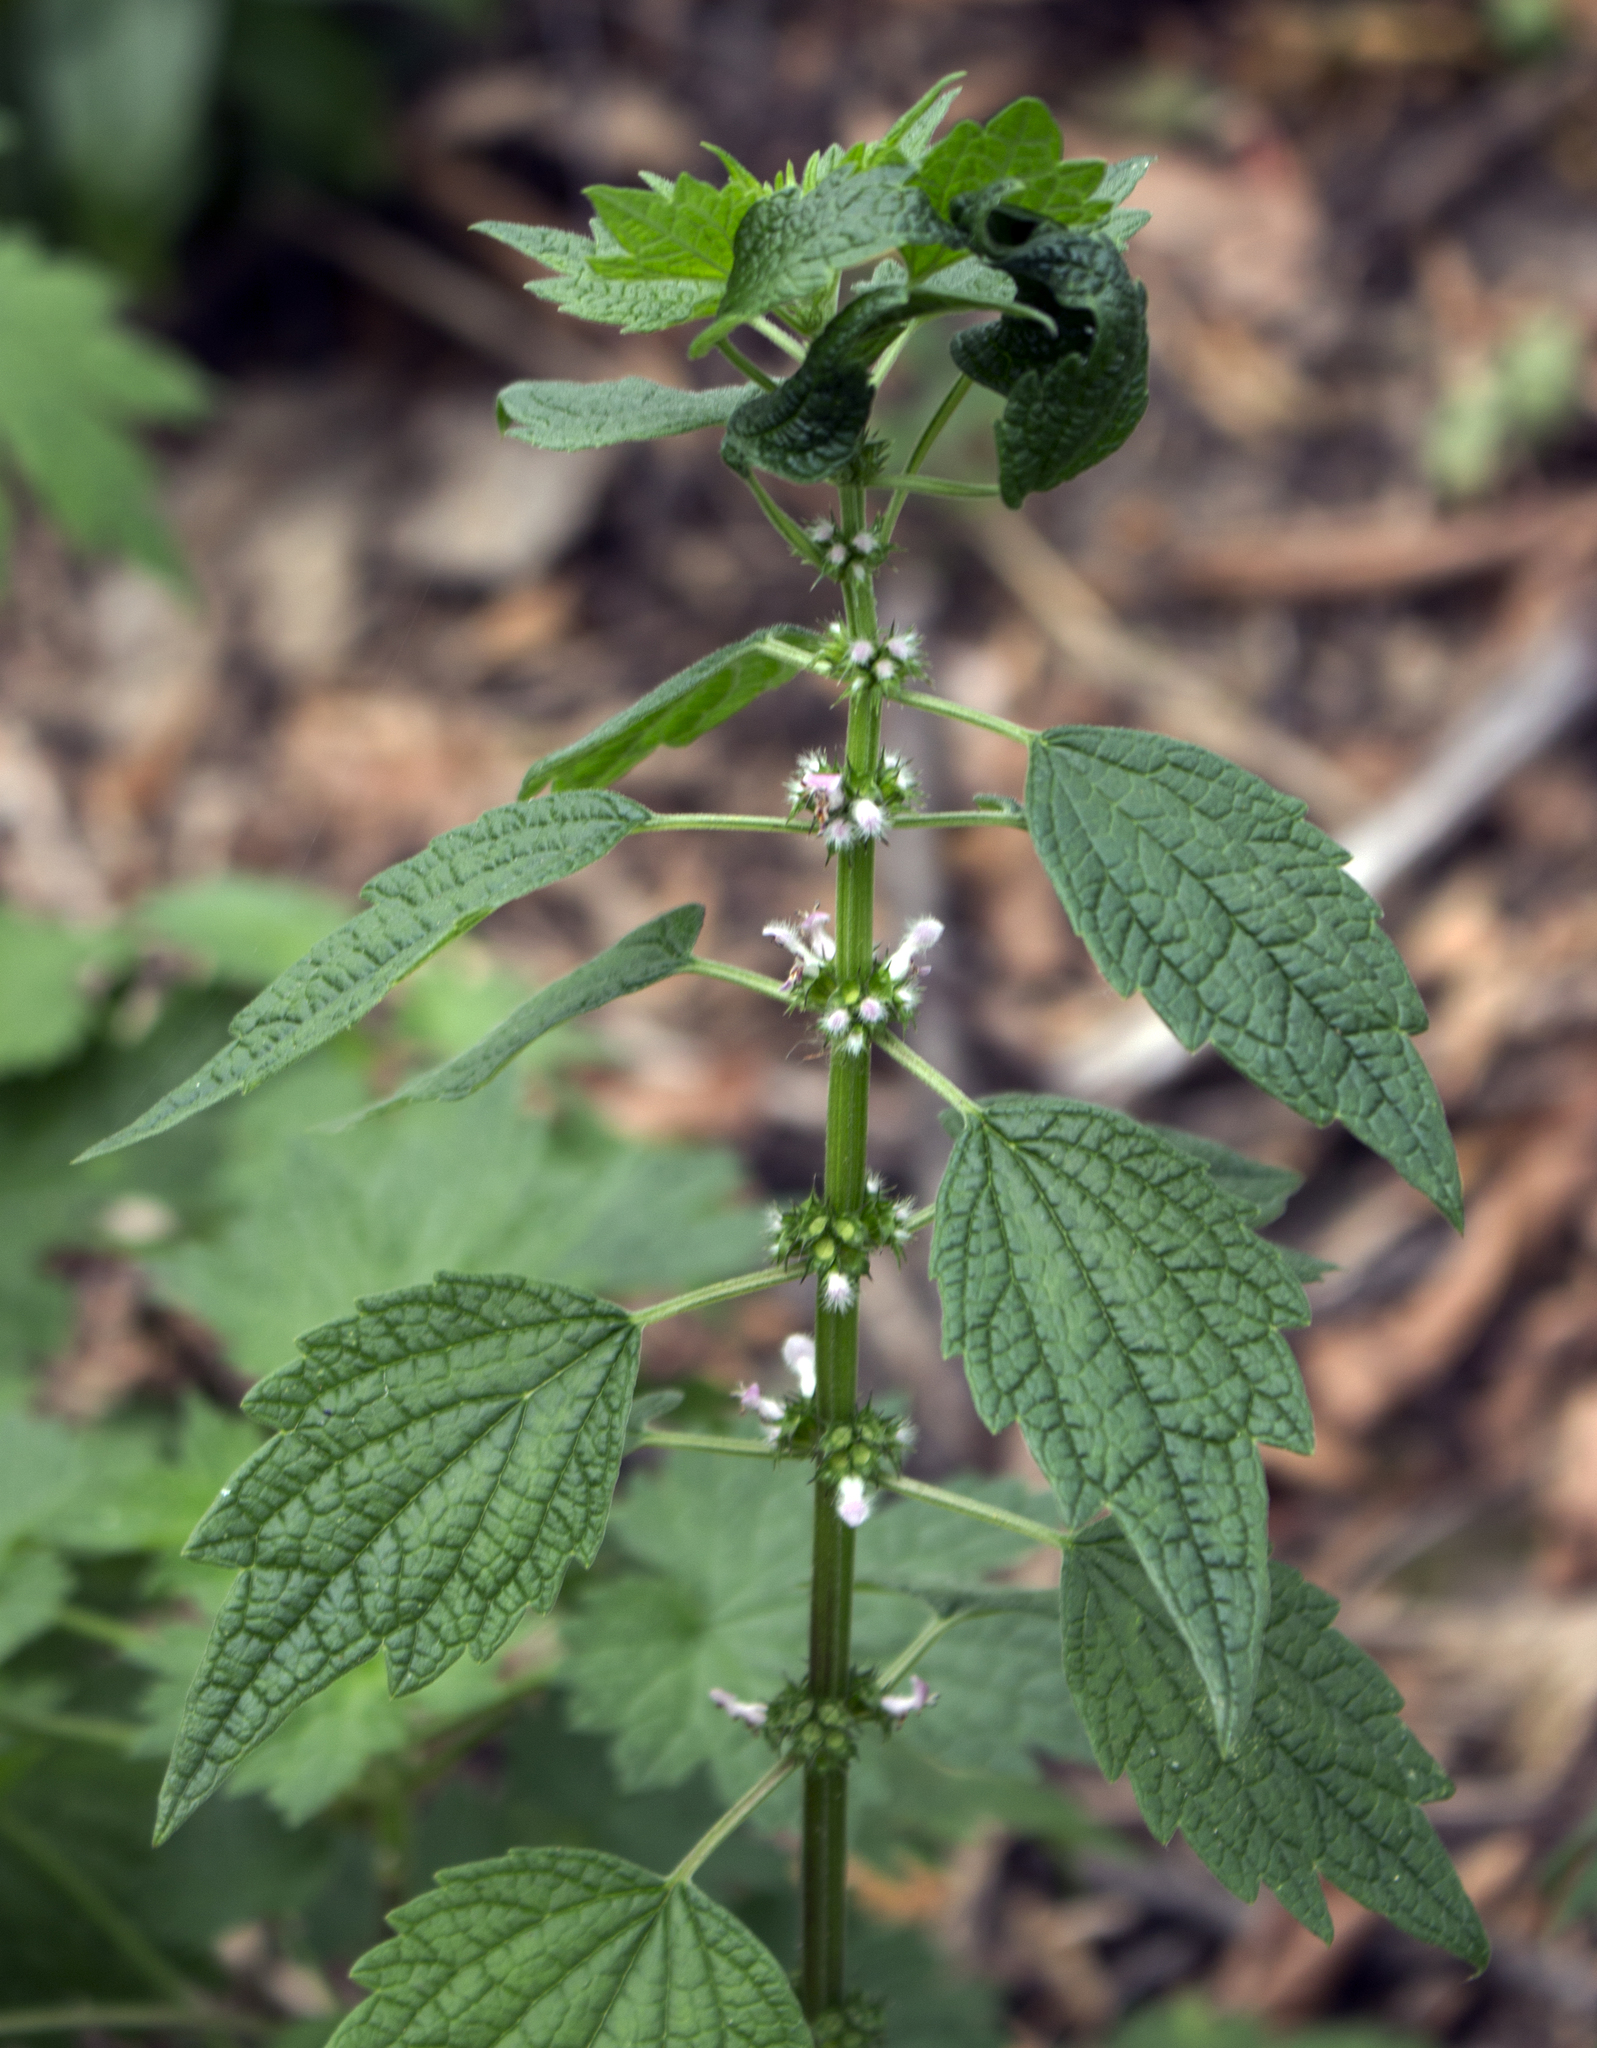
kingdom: Plantae
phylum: Tracheophyta
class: Magnoliopsida
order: Lamiales
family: Lamiaceae
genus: Leonurus
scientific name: Leonurus cardiaca
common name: Motherwort
